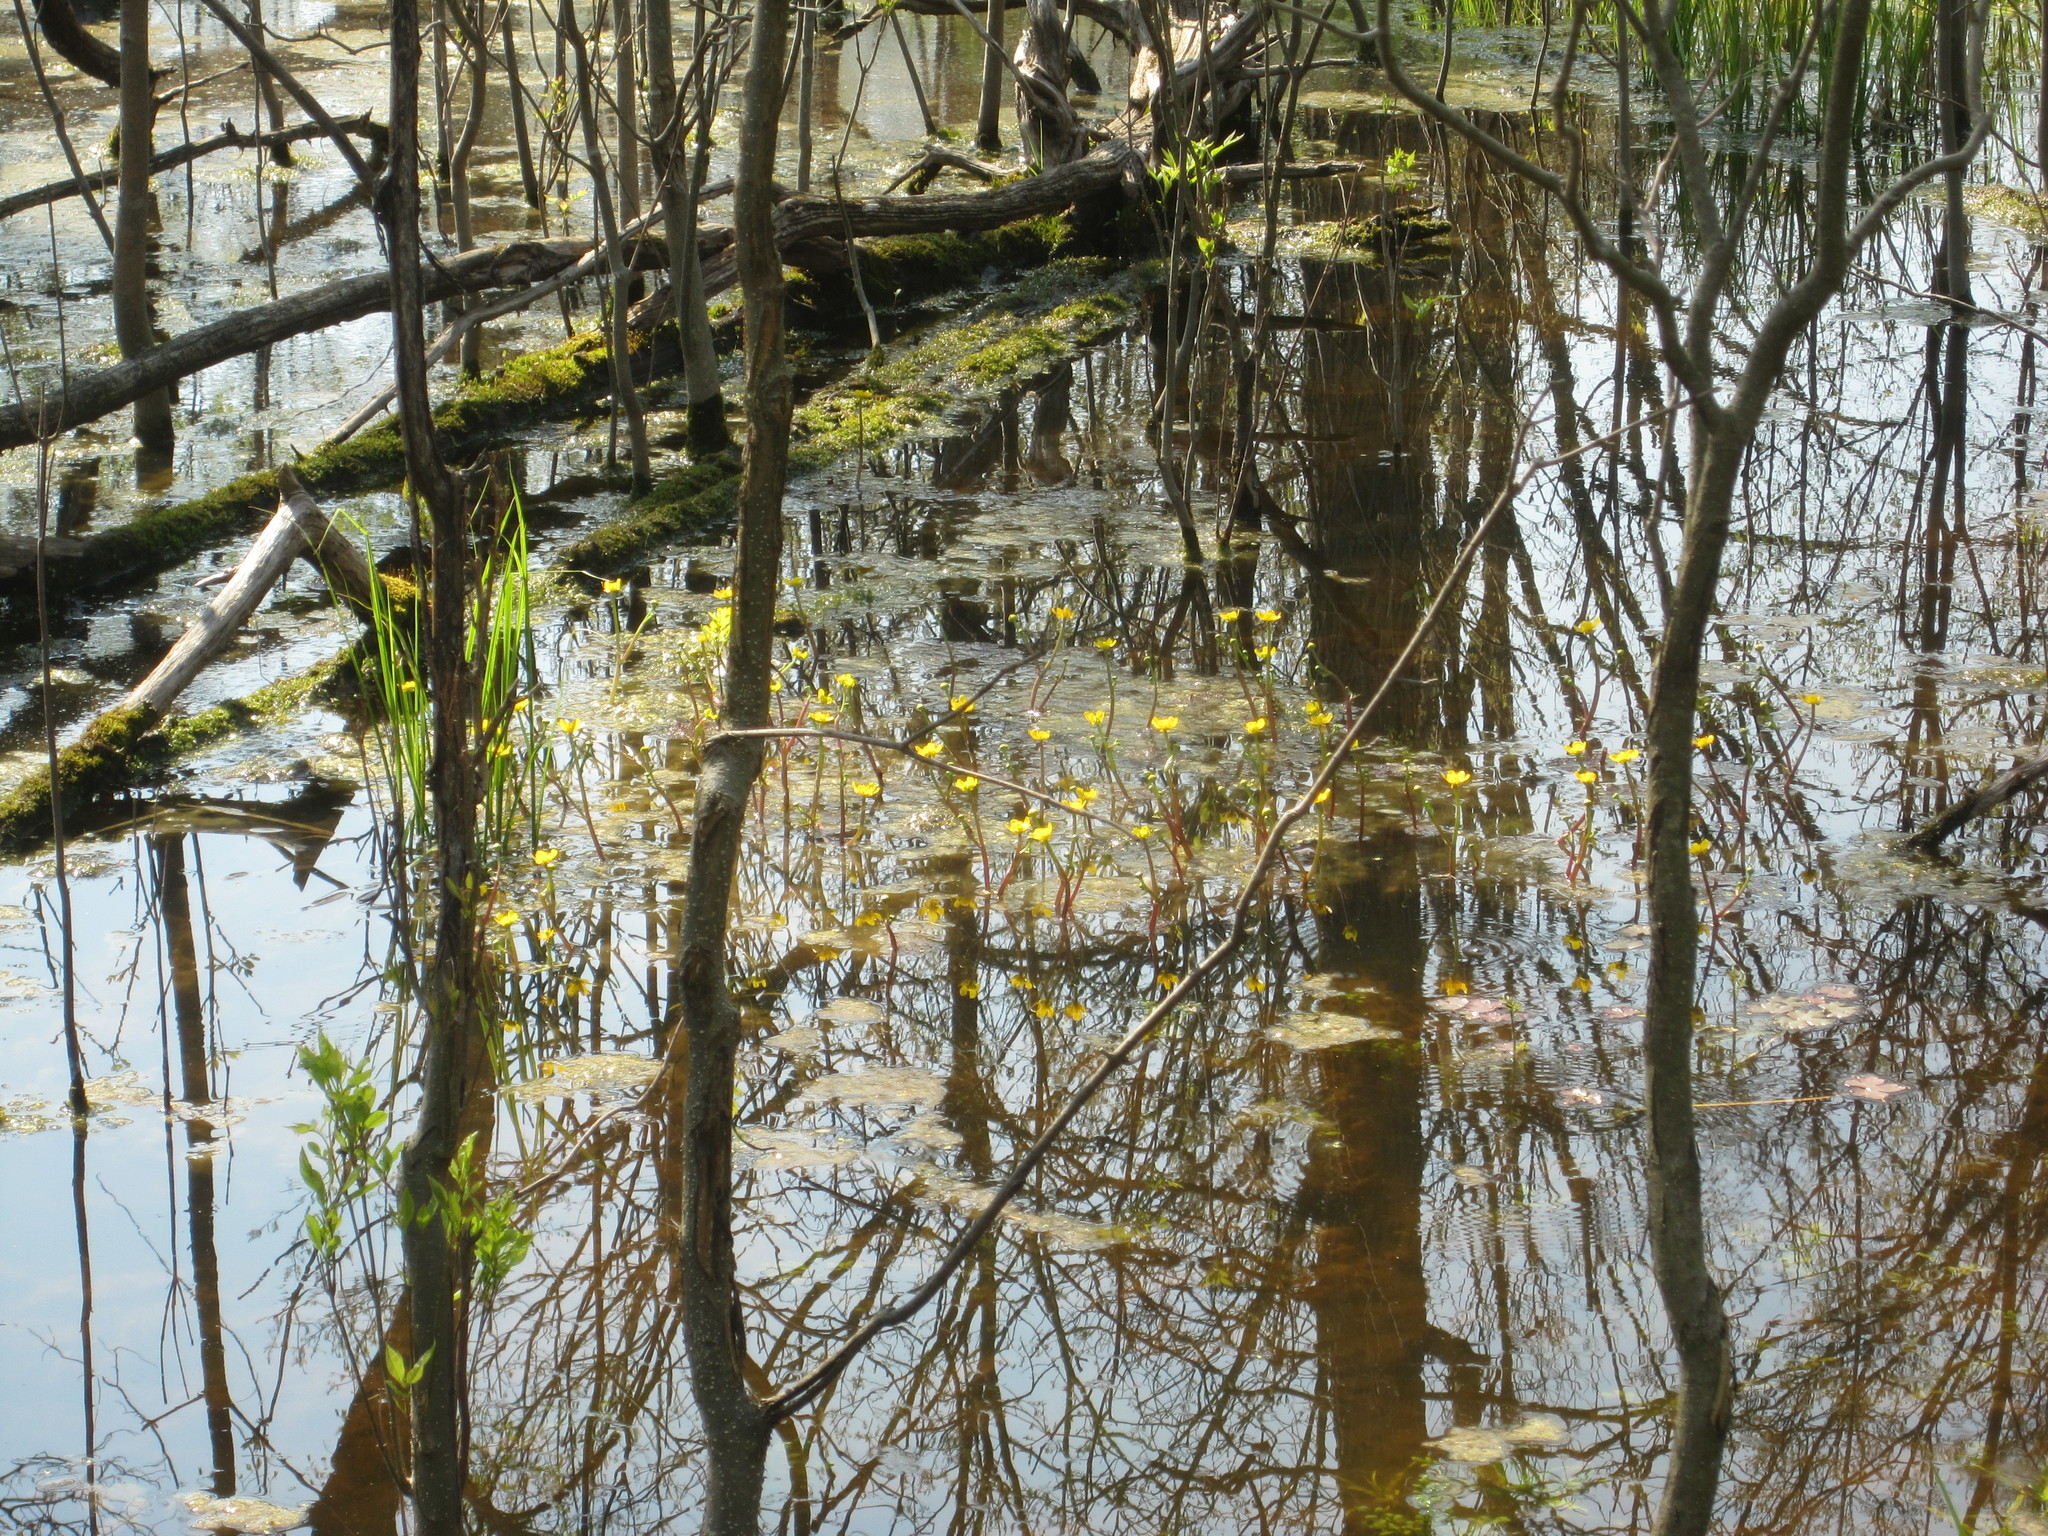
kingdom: Plantae
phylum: Tracheophyta
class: Magnoliopsida
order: Ranunculales
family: Ranunculaceae
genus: Ranunculus
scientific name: Ranunculus flabellaris
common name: Yellow water-crowfoot
